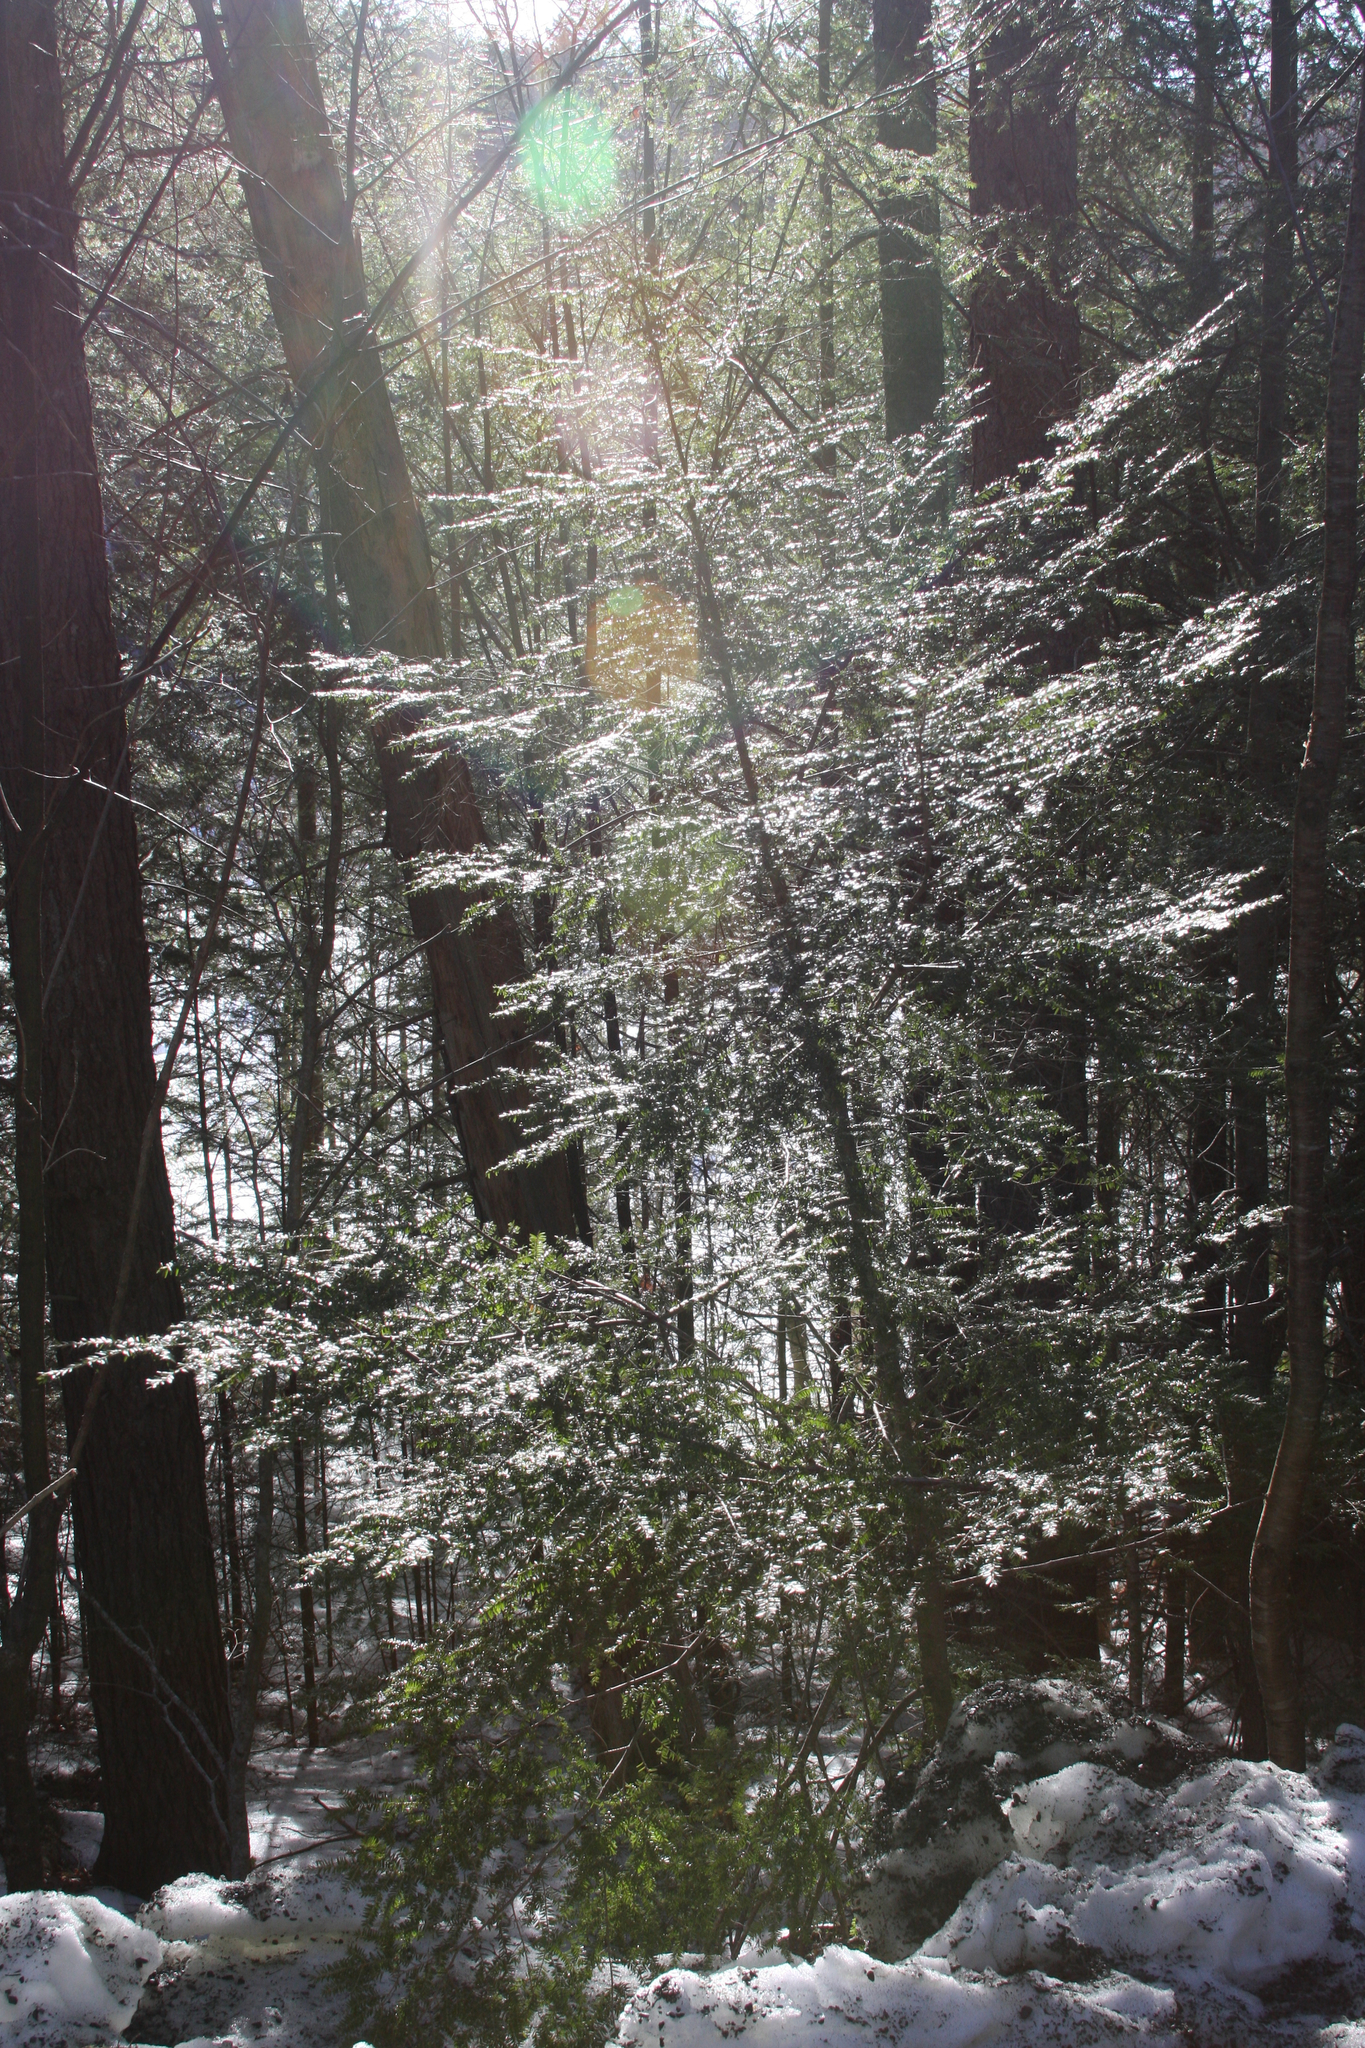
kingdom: Plantae
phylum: Tracheophyta
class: Pinopsida
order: Pinales
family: Pinaceae
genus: Tsuga
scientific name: Tsuga canadensis
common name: Eastern hemlock
